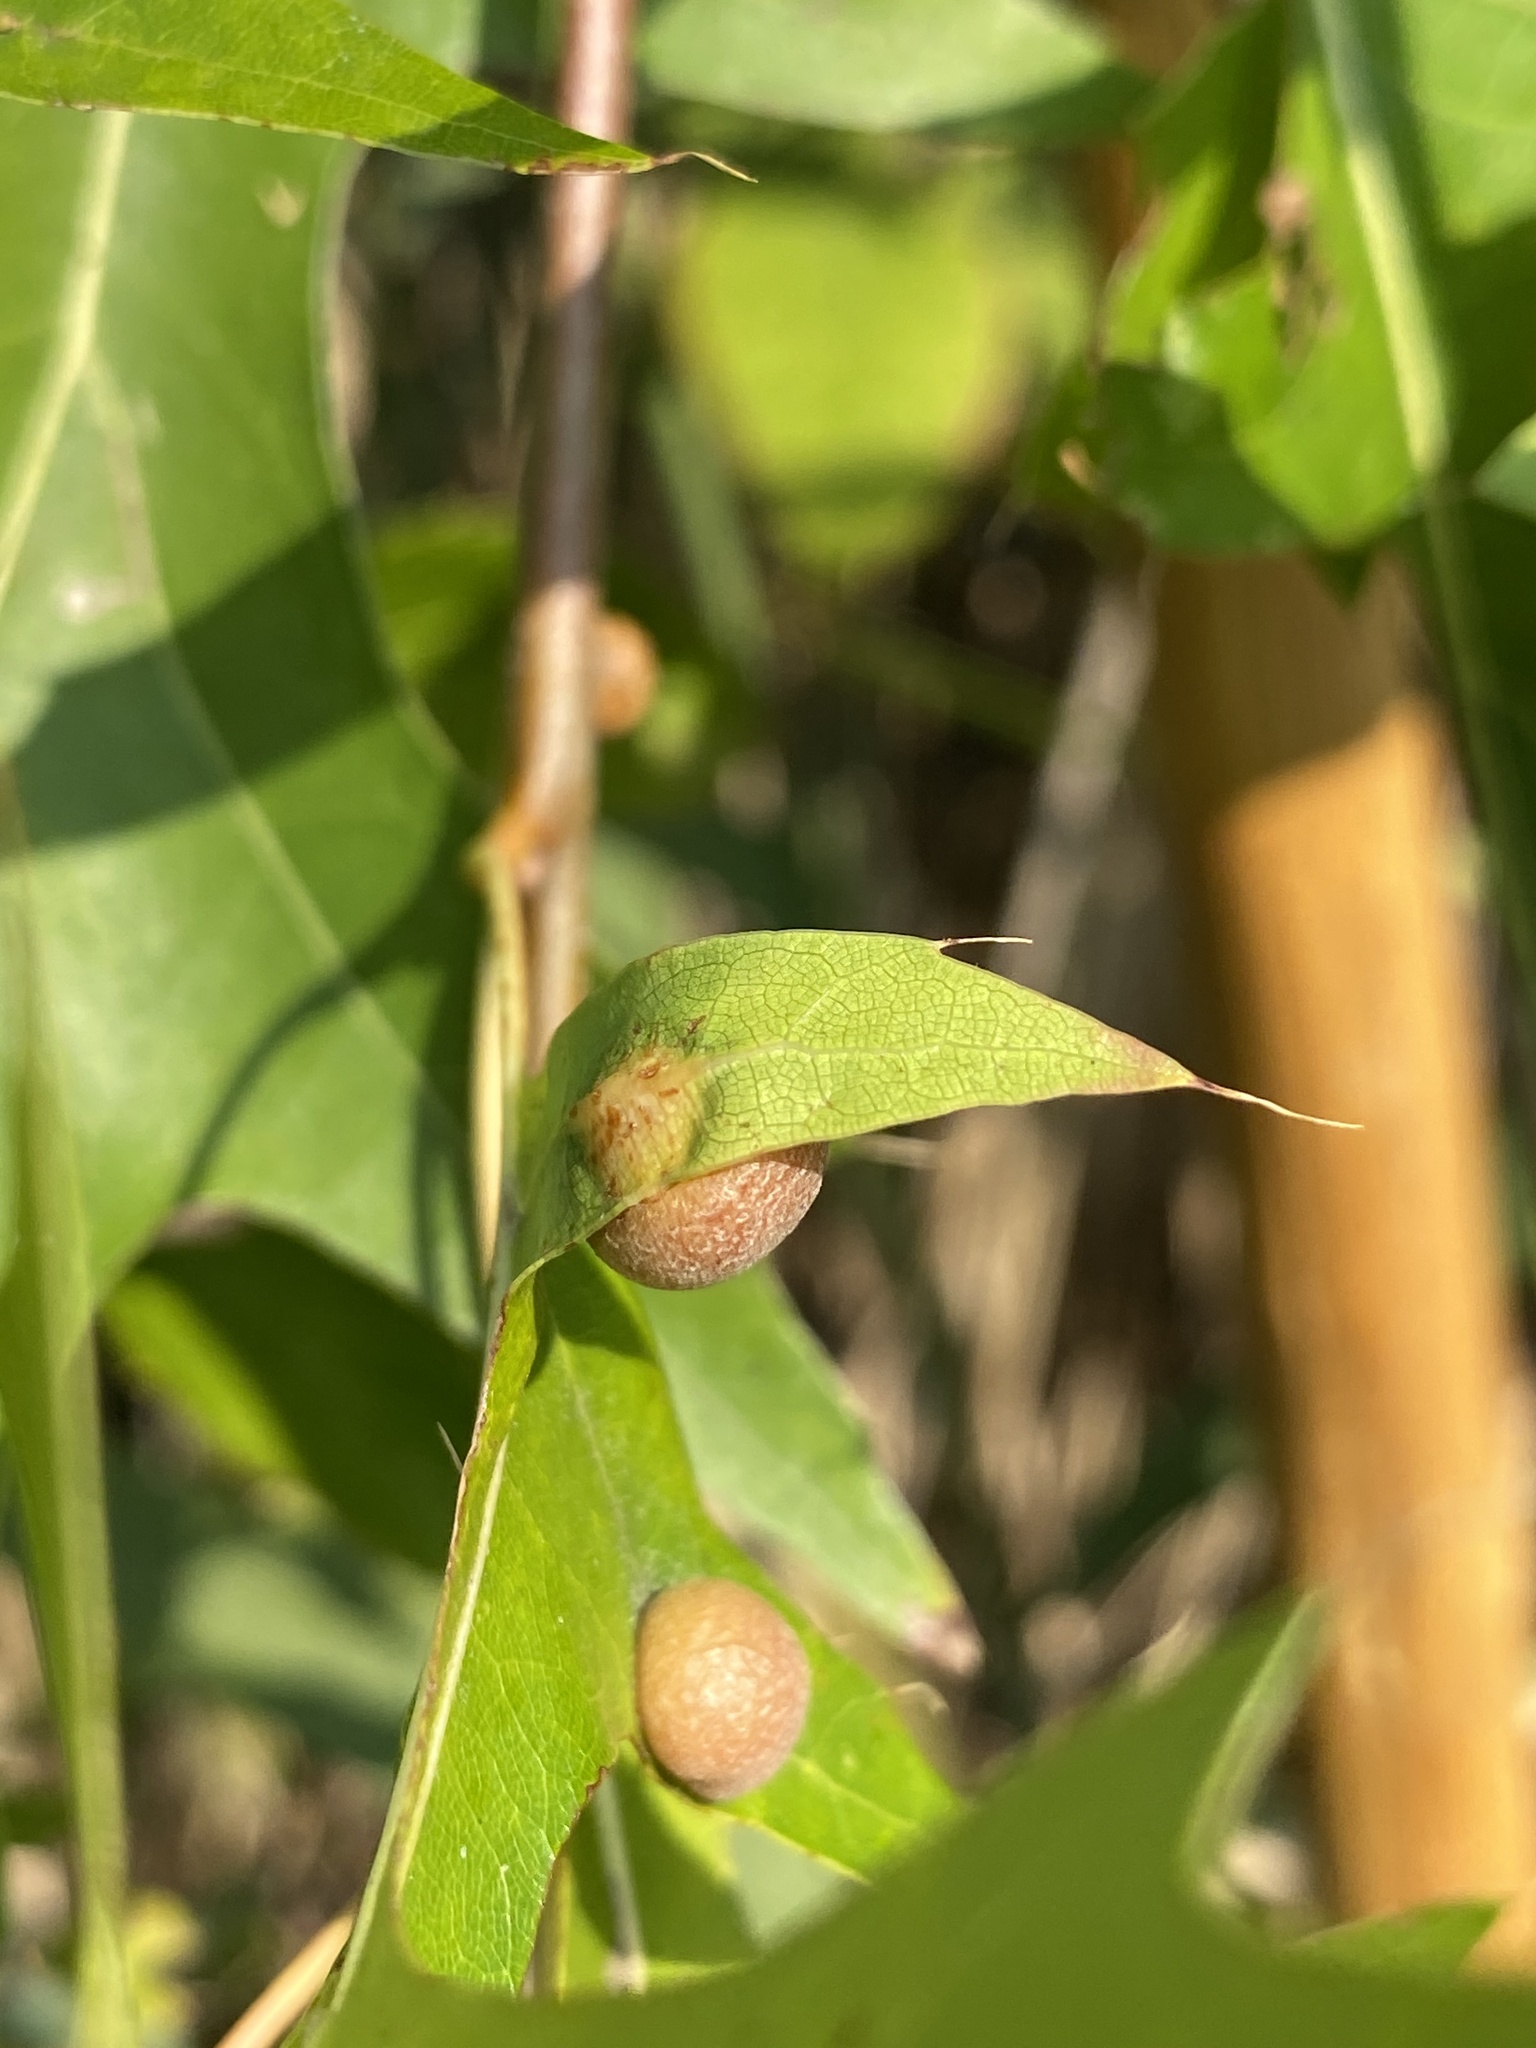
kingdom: Animalia
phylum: Arthropoda
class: Insecta
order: Diptera
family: Cecidomyiidae
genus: Polystepha
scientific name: Polystepha pilulae
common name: Oak leaf gall midge
